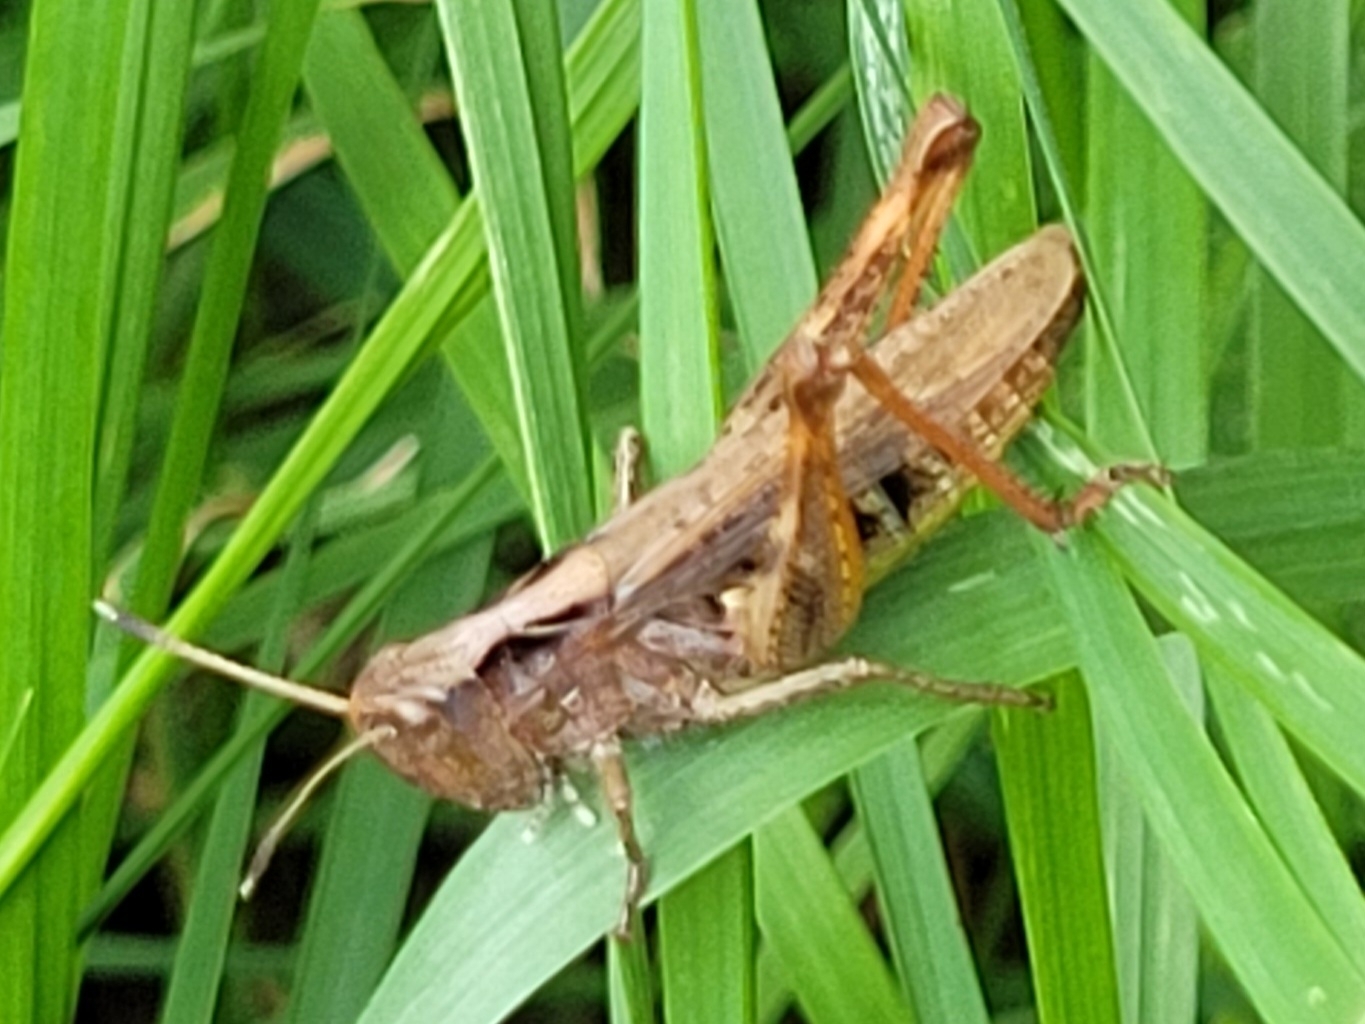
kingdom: Animalia
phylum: Arthropoda
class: Insecta
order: Orthoptera
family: Acrididae
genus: Gomphocerippus
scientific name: Gomphocerippus rufus
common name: Rufous grasshopper
